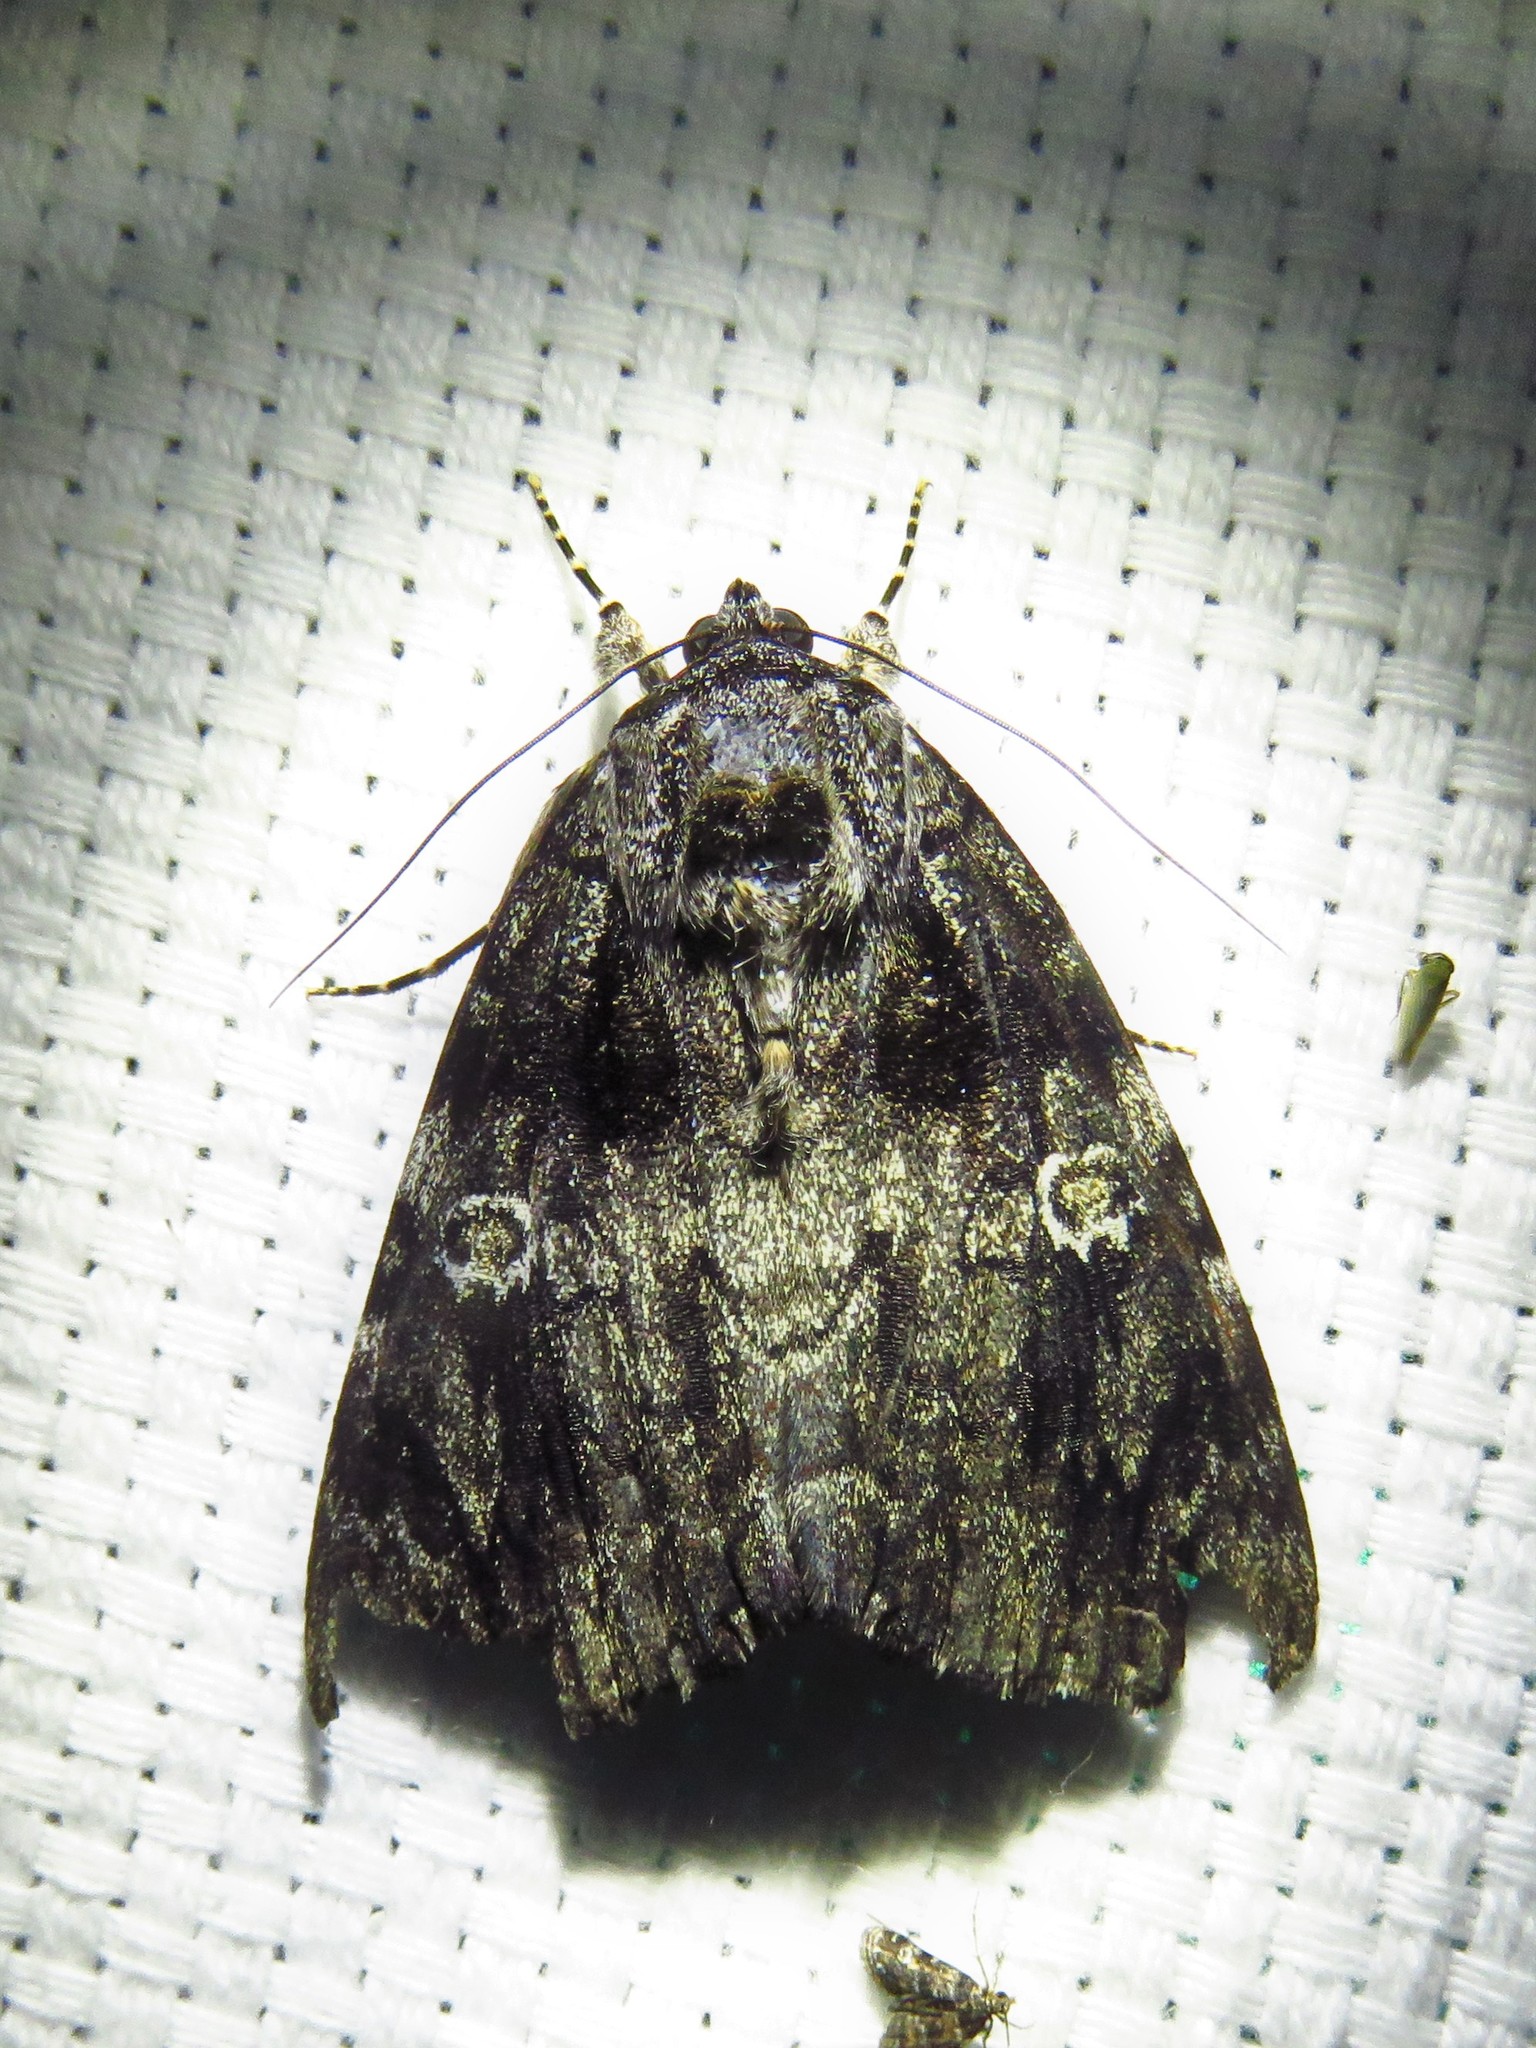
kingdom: Animalia
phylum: Arthropoda
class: Insecta
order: Lepidoptera
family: Erebidae
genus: Catocala
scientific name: Catocala ilia
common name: Ilia underwing
